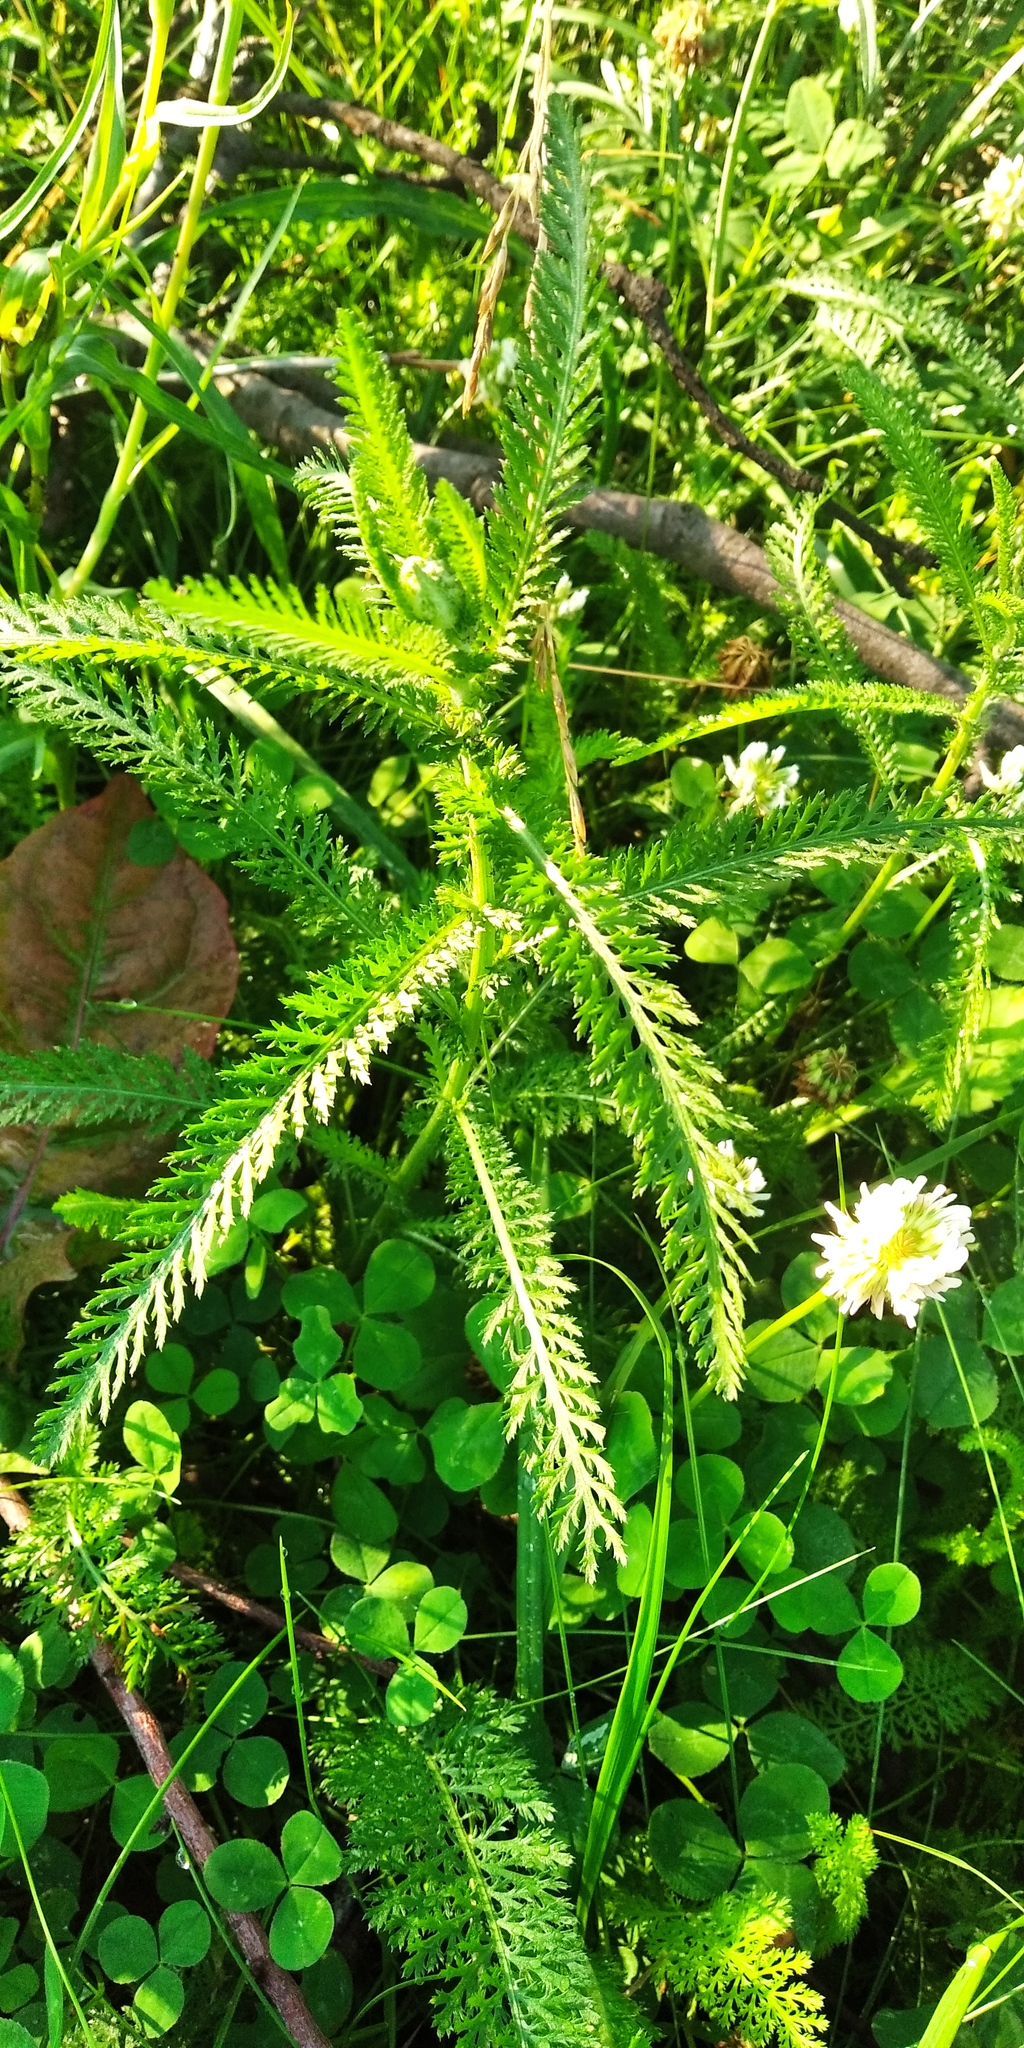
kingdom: Plantae
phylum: Tracheophyta
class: Magnoliopsida
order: Asterales
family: Asteraceae
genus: Achillea
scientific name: Achillea millefolium
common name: Yarrow
